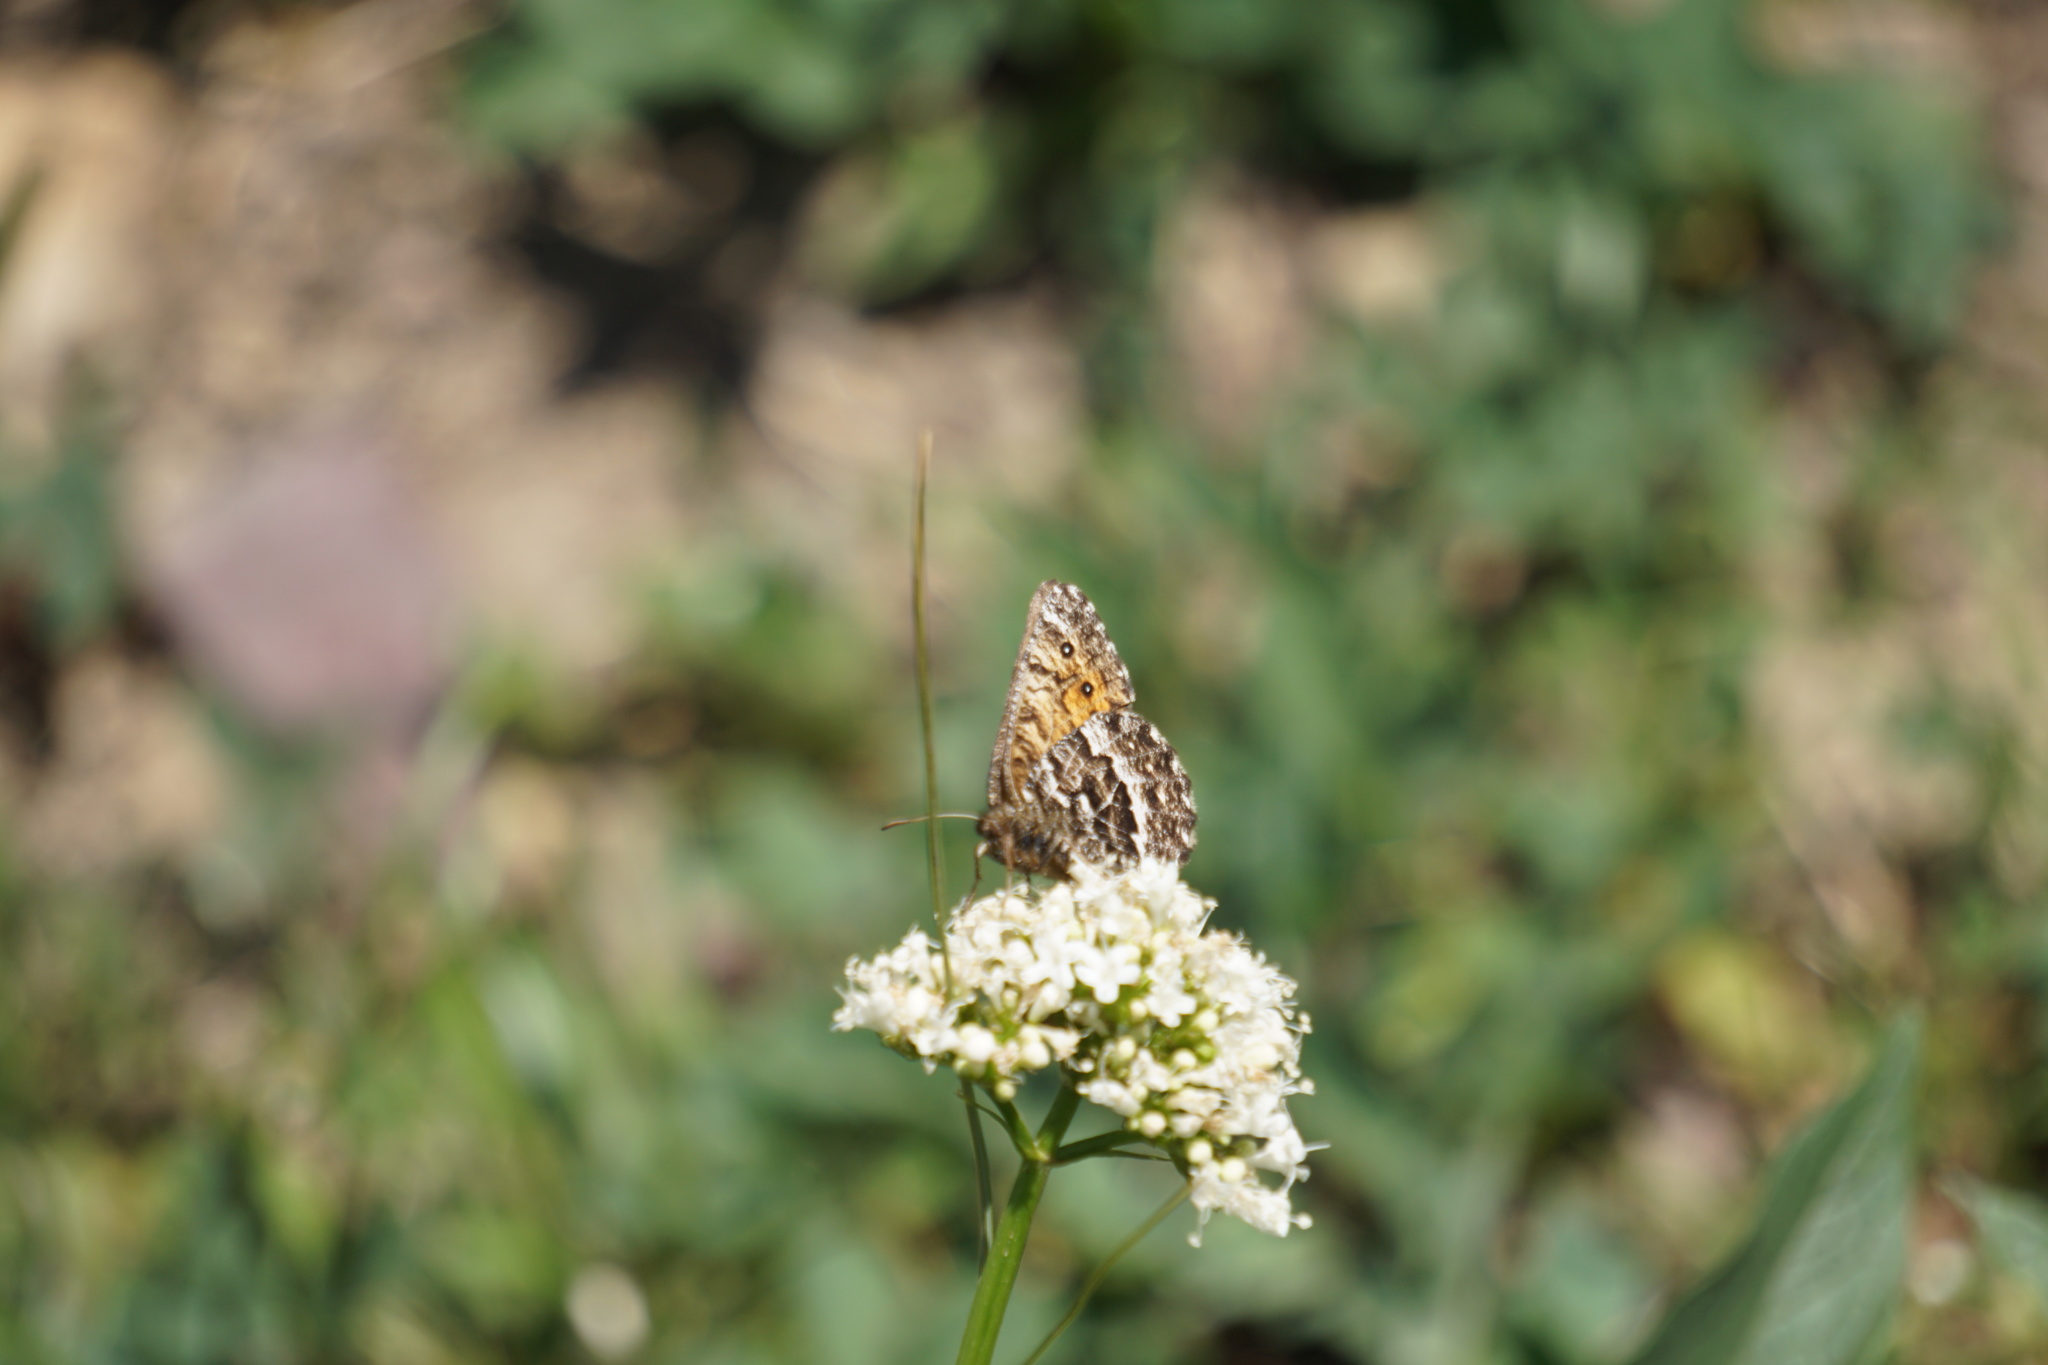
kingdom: Animalia
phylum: Arthropoda
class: Insecta
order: Lepidoptera
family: Nymphalidae
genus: Oeneis
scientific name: Oeneis chryxus
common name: Chryxus arctic
